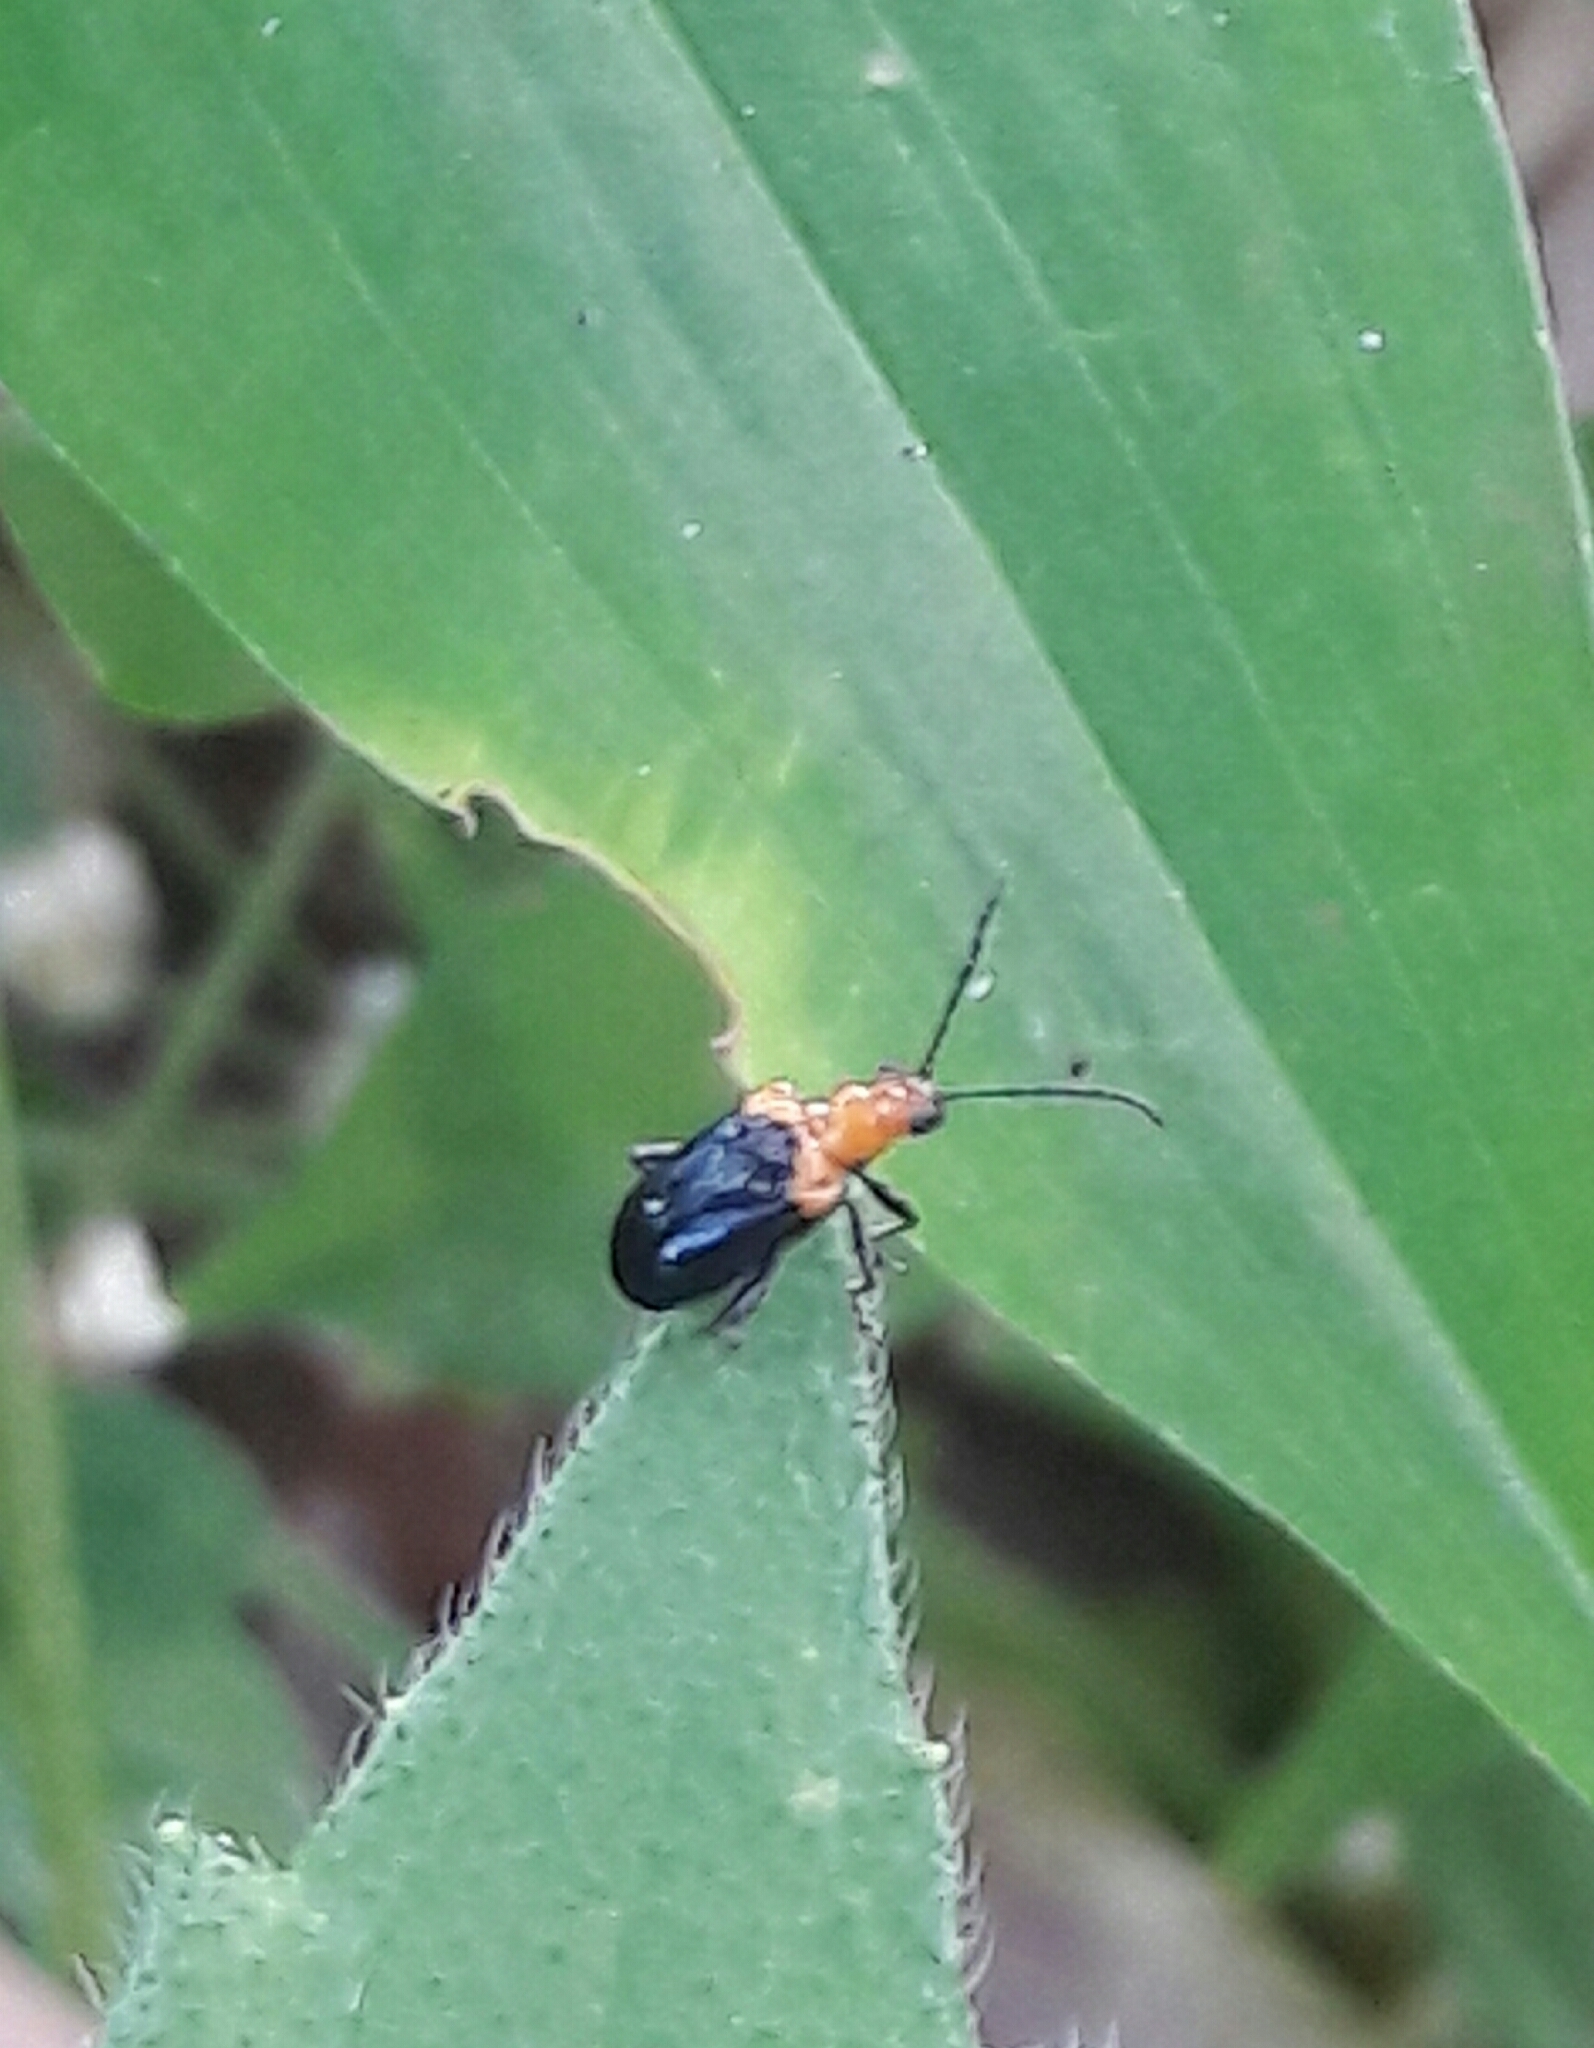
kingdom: Animalia
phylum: Arthropoda
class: Insecta
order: Coleoptera
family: Chrysomelidae
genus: Neolema
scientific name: Neolema
